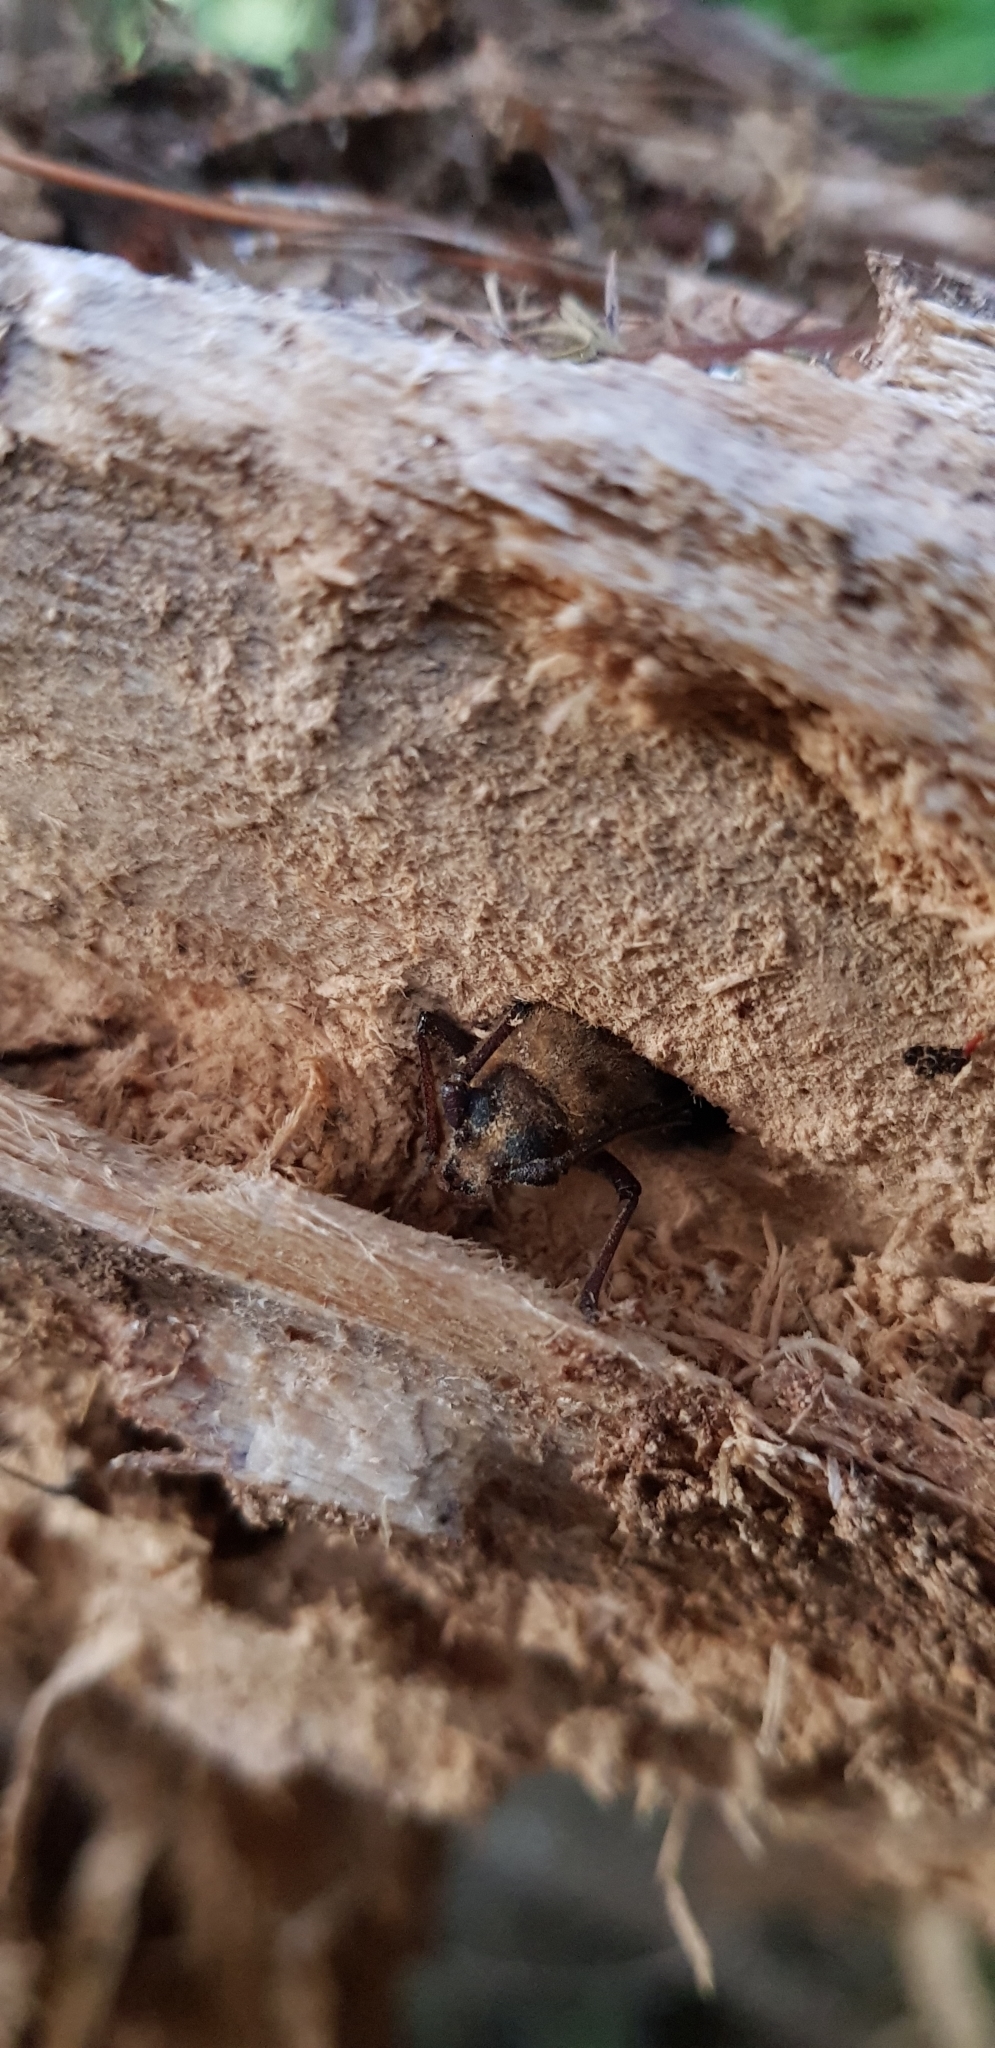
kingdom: Animalia
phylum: Arthropoda
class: Insecta
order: Coleoptera
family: Cerambycidae
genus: Prionoplus
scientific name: Prionoplus reticularis
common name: Huhu beetle
